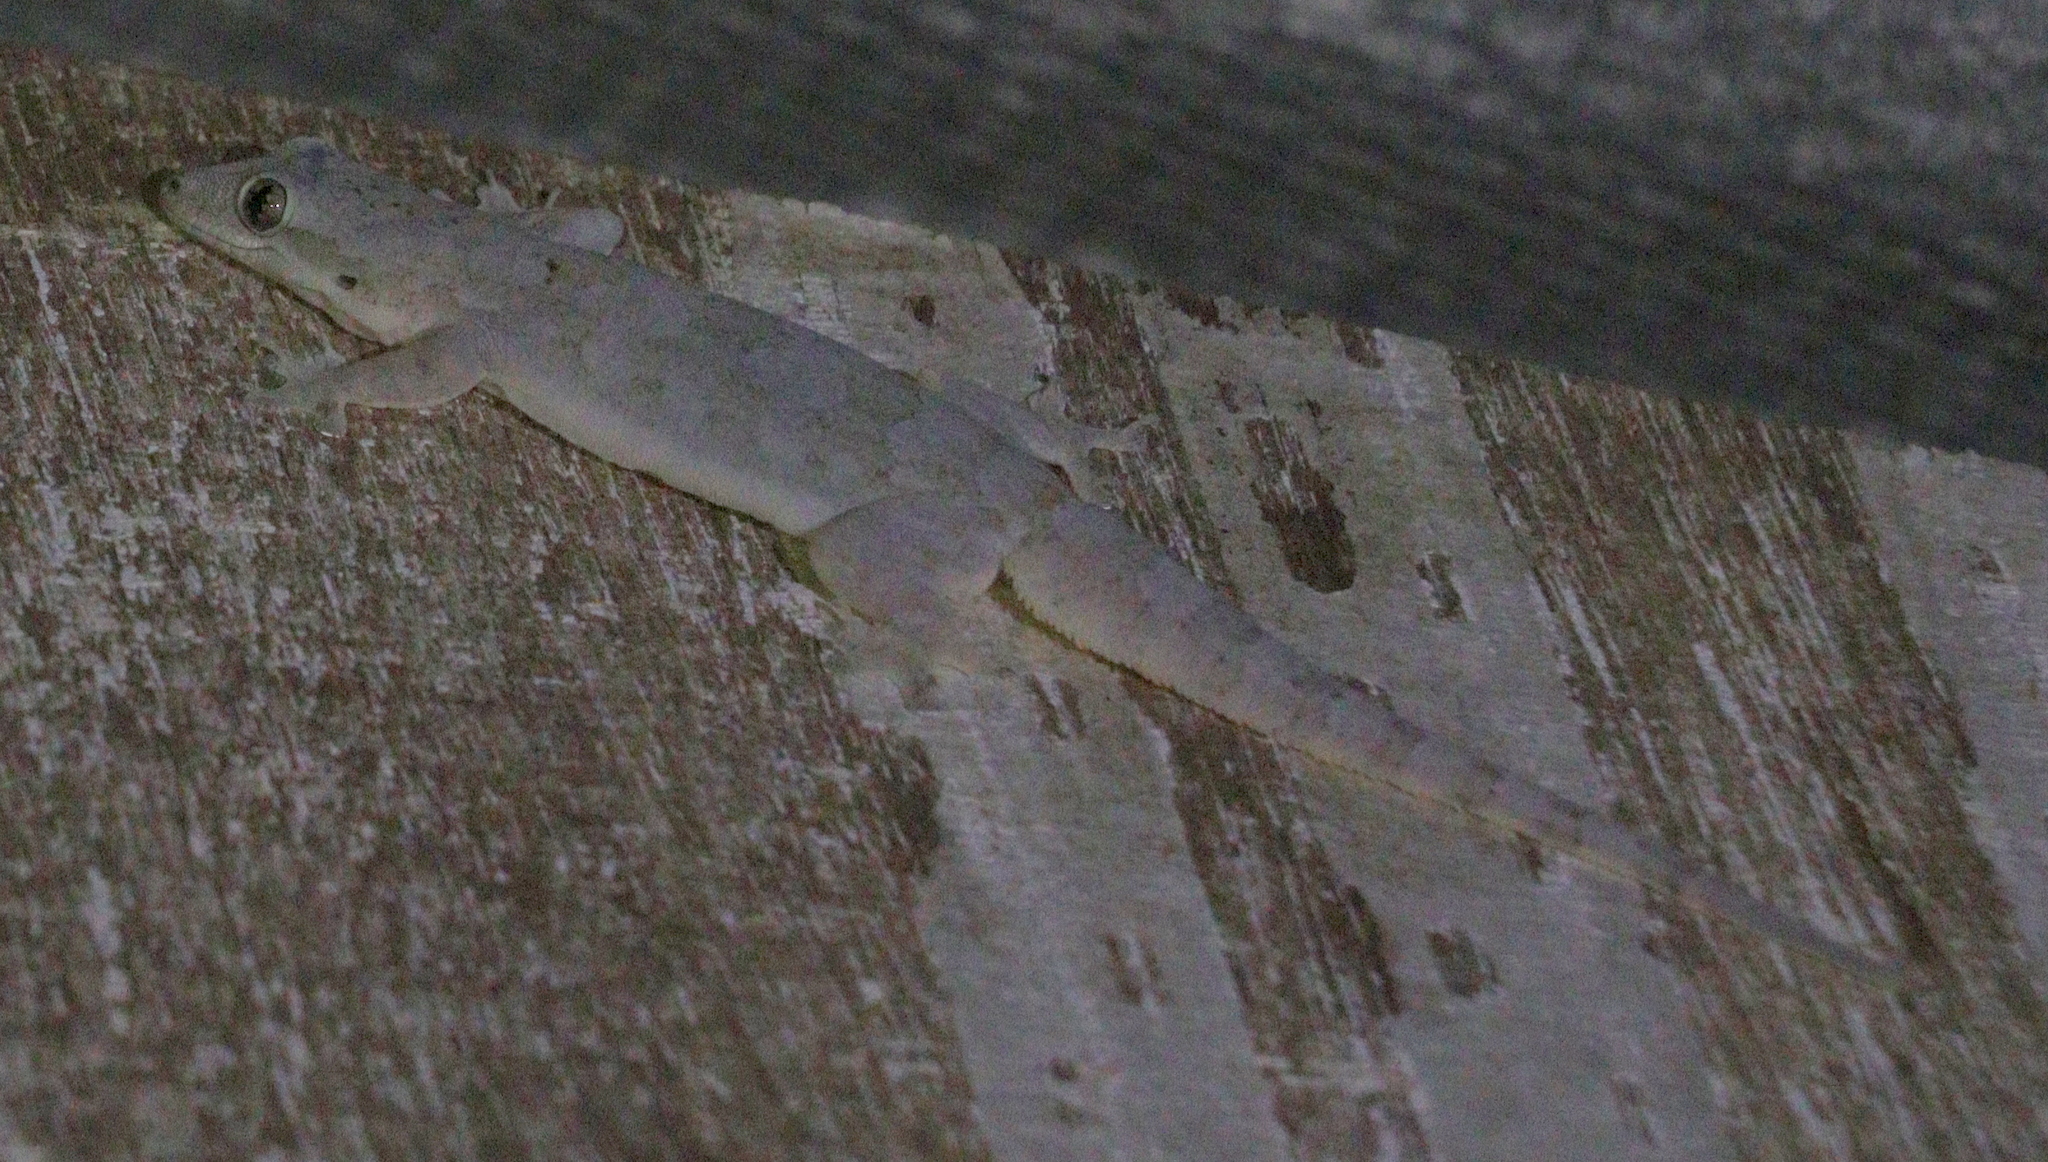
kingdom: Animalia
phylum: Chordata
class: Squamata
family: Gekkonidae
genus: Hemidactylus
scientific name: Hemidactylus platyurus
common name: Flat-tailed house gecko
